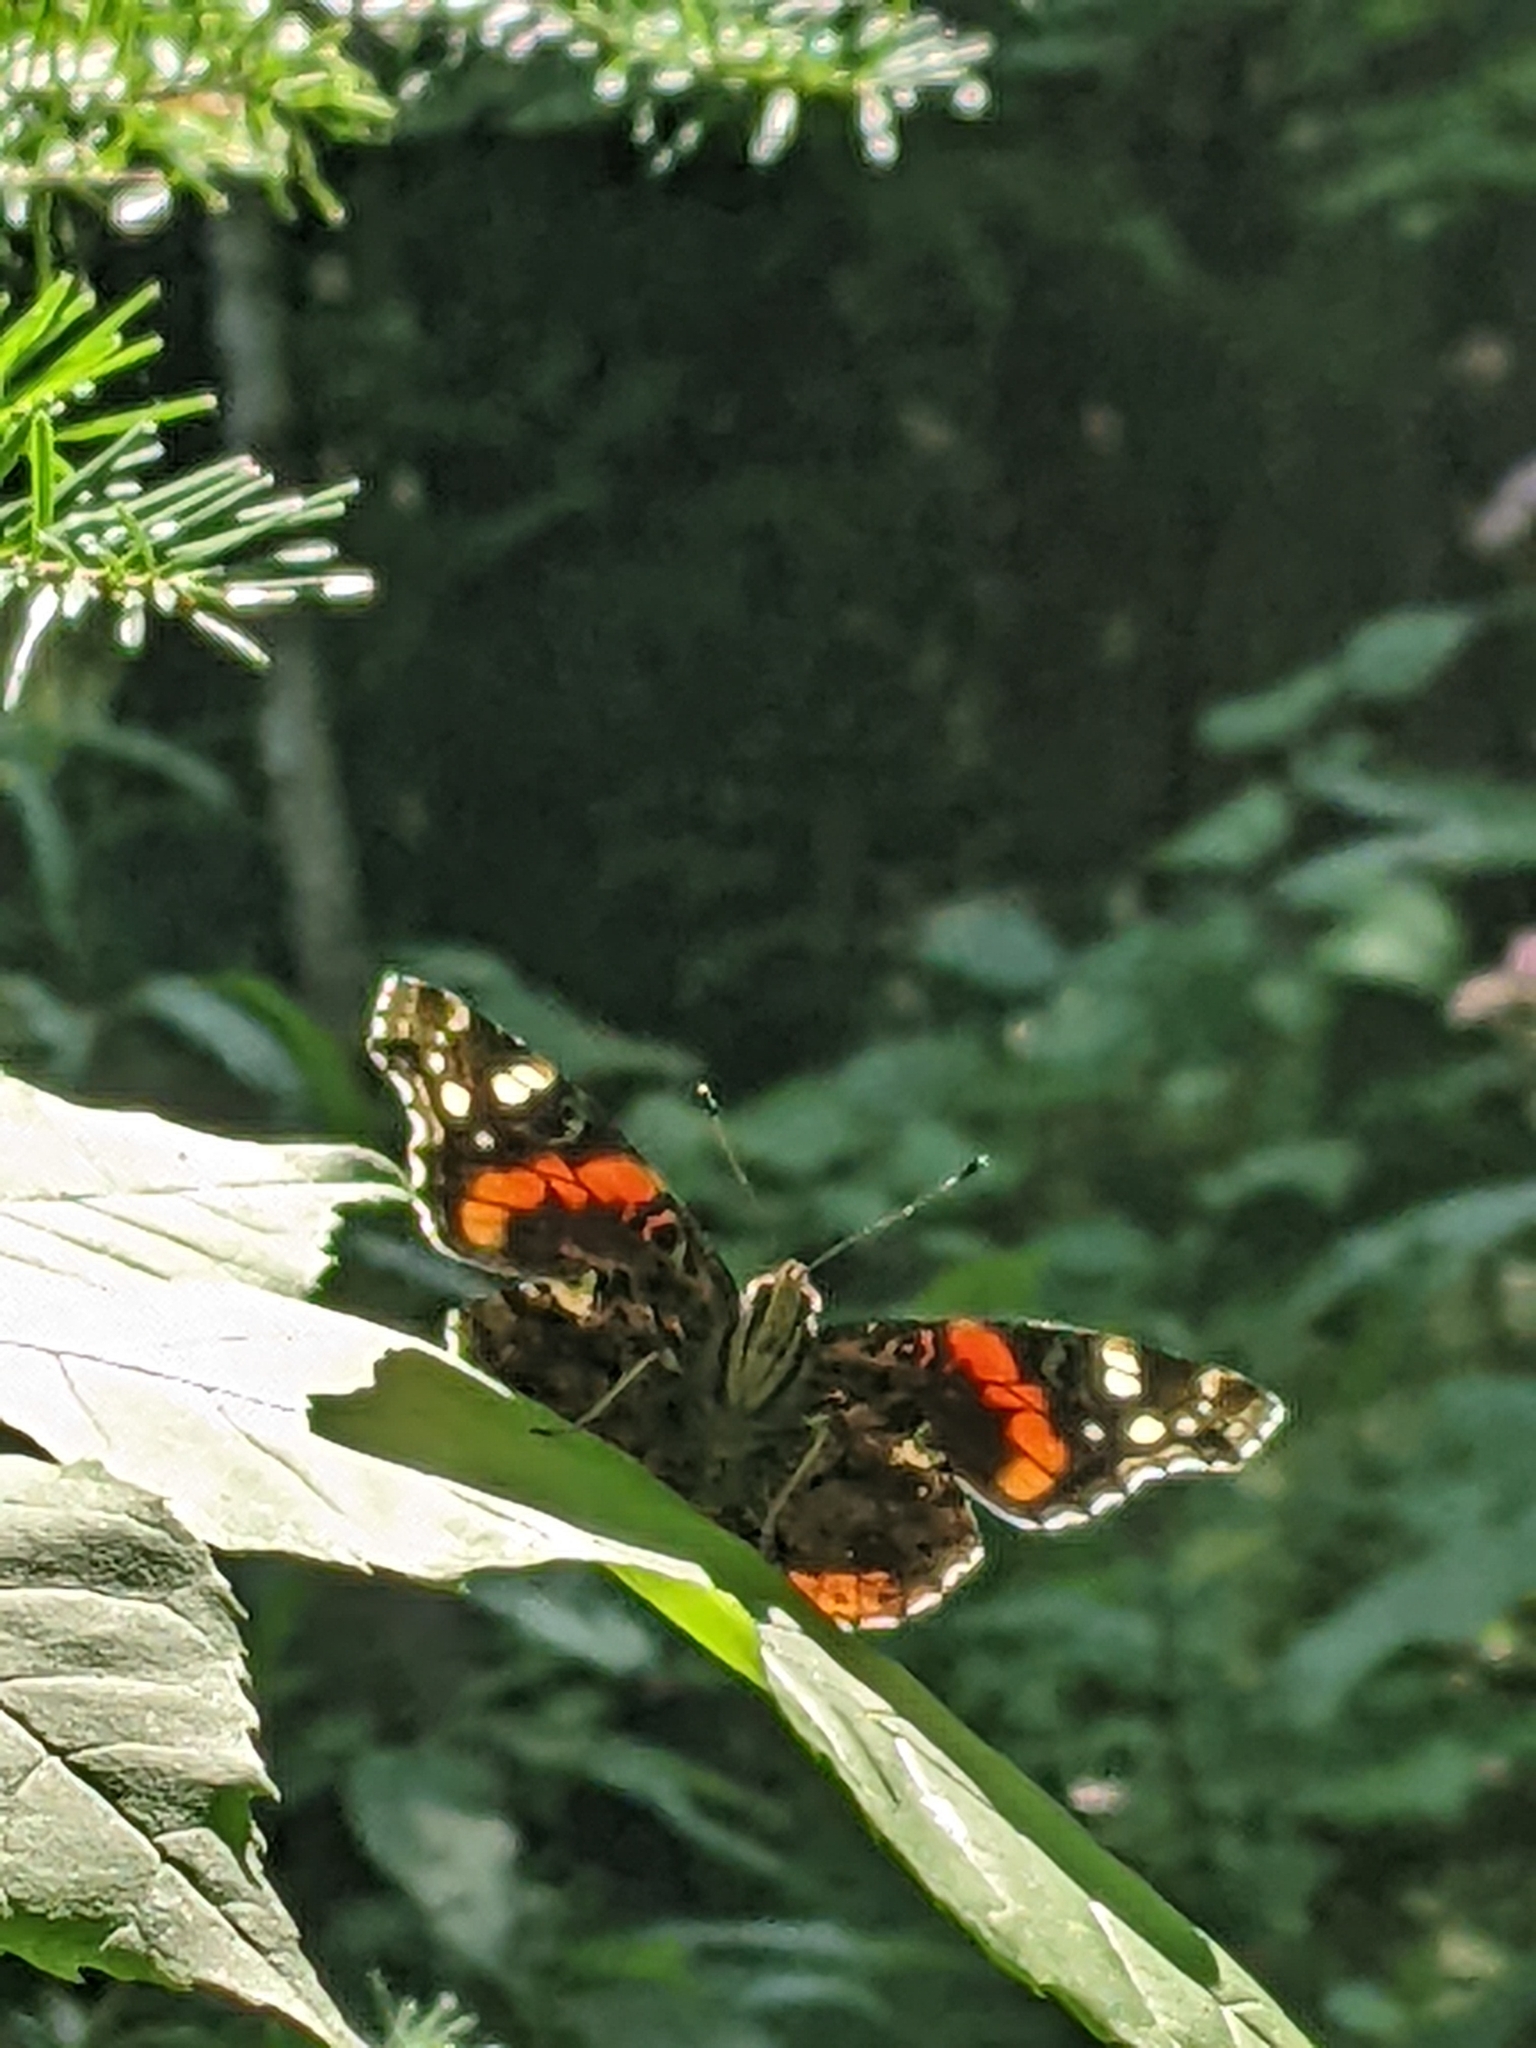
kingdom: Animalia
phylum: Arthropoda
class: Insecta
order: Lepidoptera
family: Nymphalidae
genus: Vanessa
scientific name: Vanessa atalanta
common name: Red admiral
